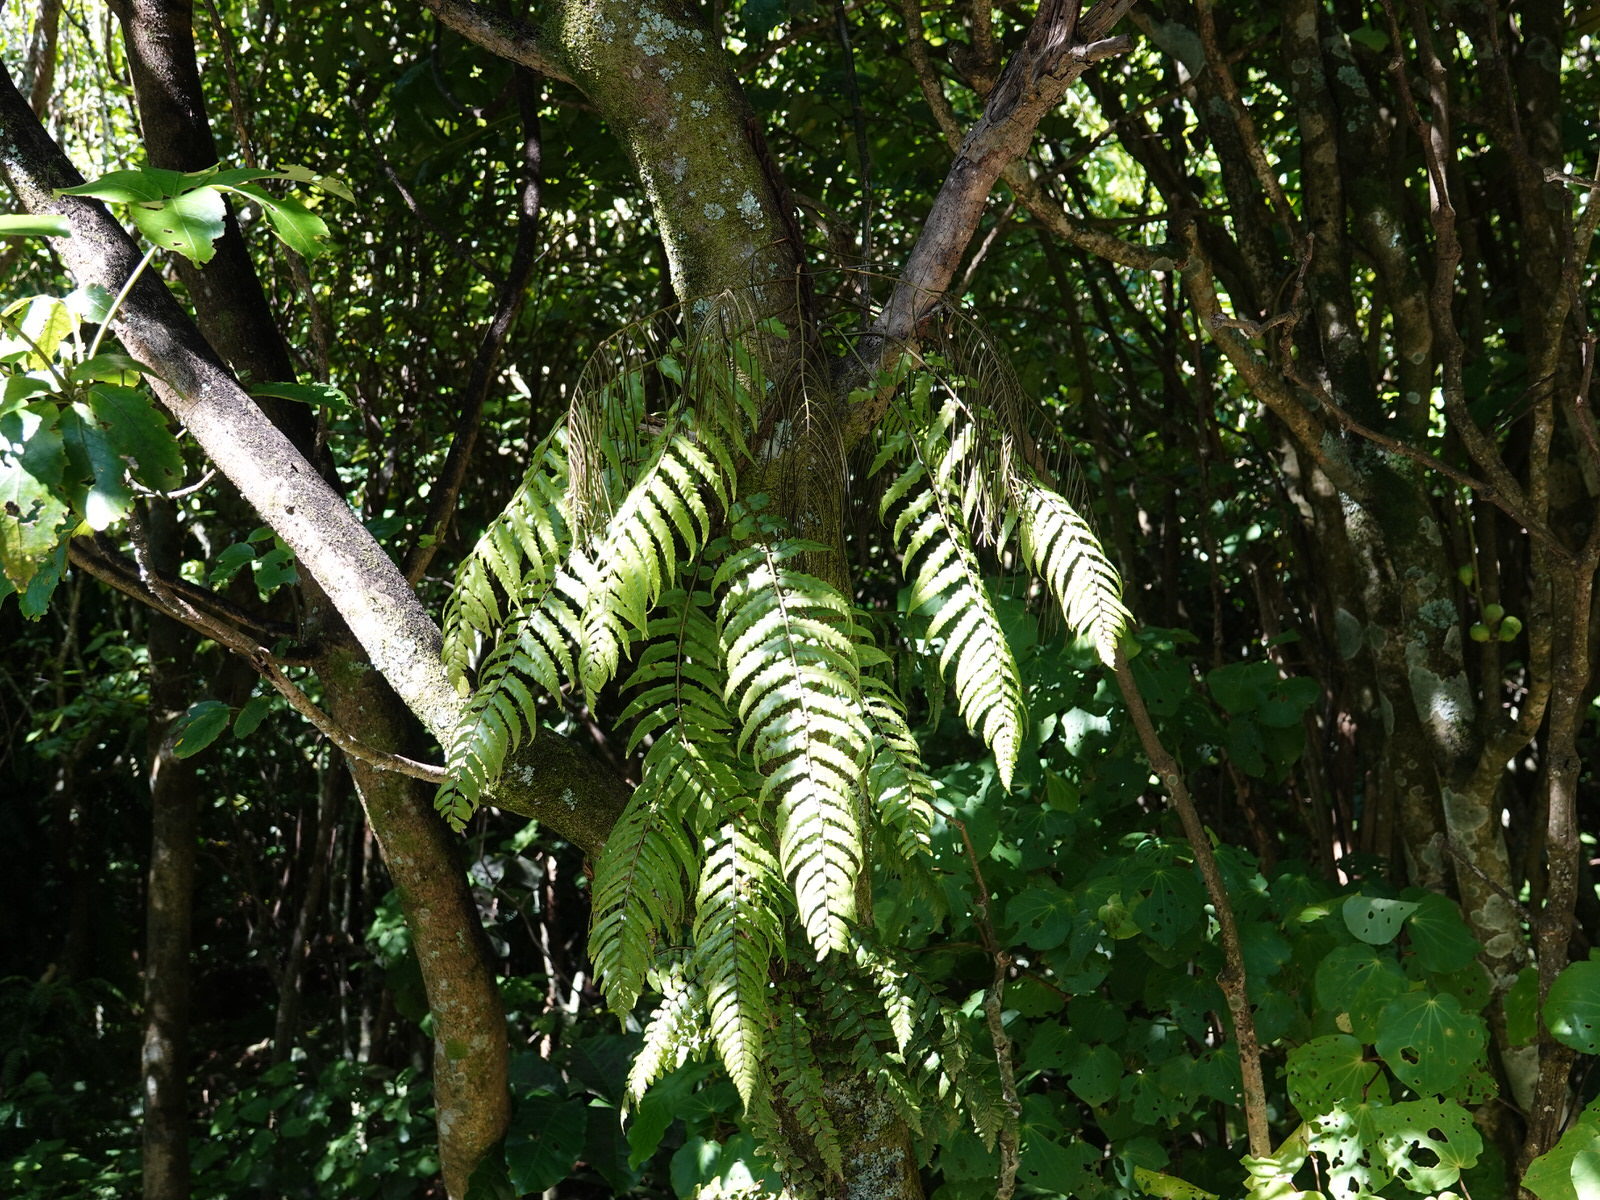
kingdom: Plantae
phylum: Tracheophyta
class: Polypodiopsida
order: Polypodiales
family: Blechnaceae
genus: Icarus
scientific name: Icarus filiformis
